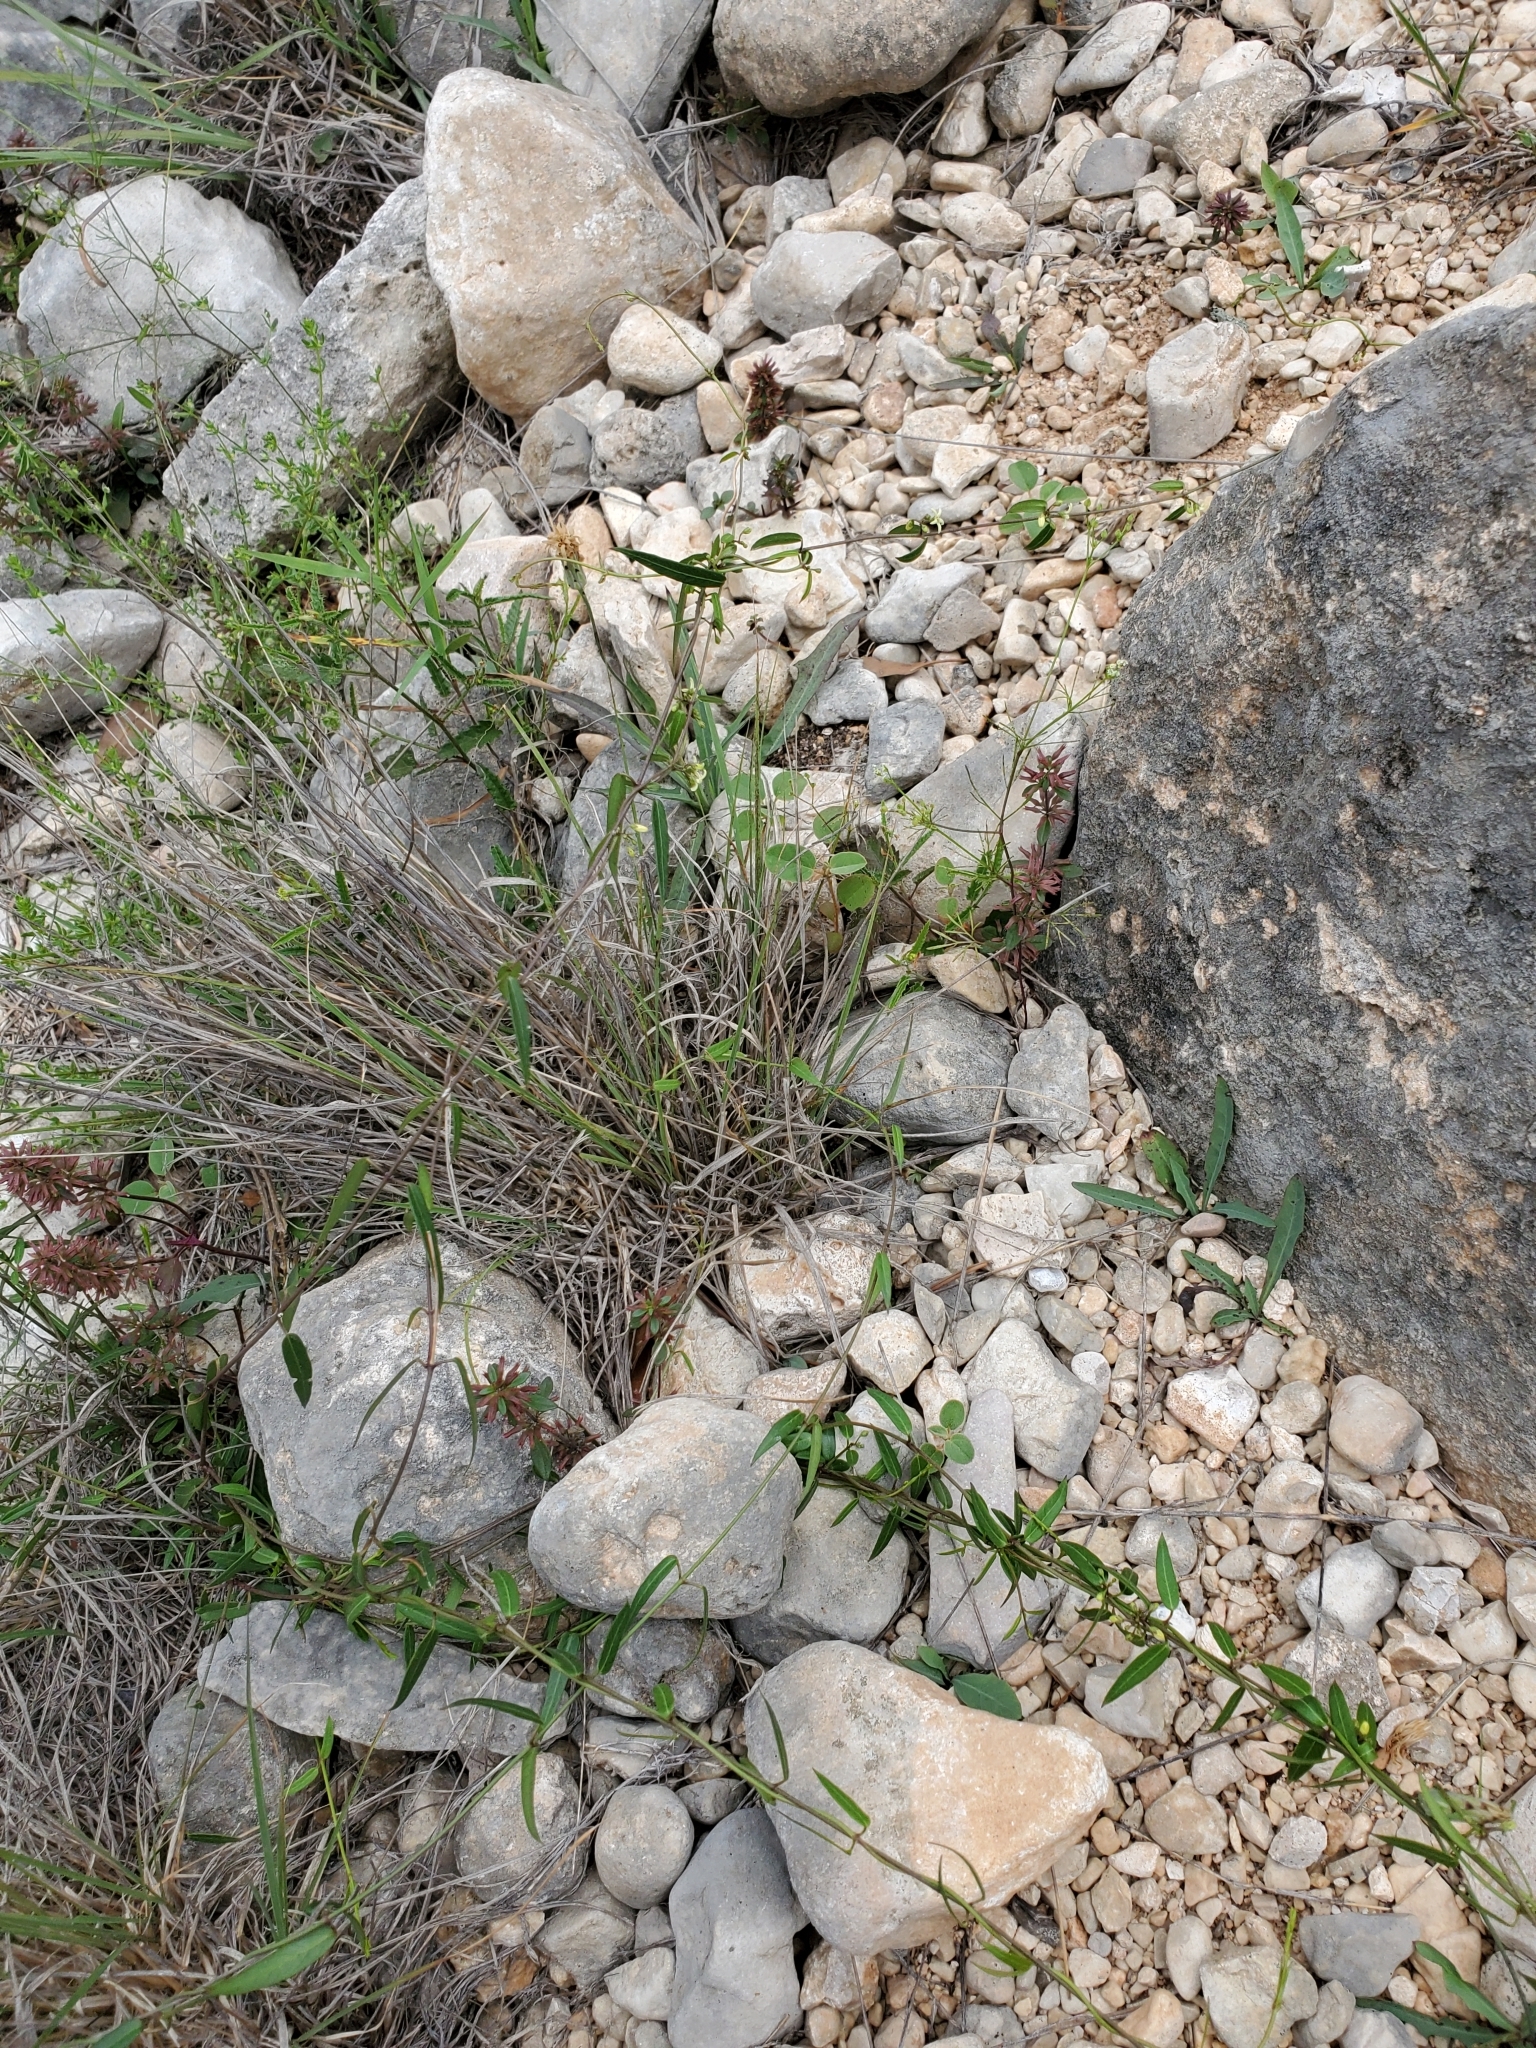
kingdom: Plantae
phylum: Tracheophyta
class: Magnoliopsida
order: Gentianales
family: Apocynaceae
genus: Metastelma
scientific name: Metastelma palmeri
